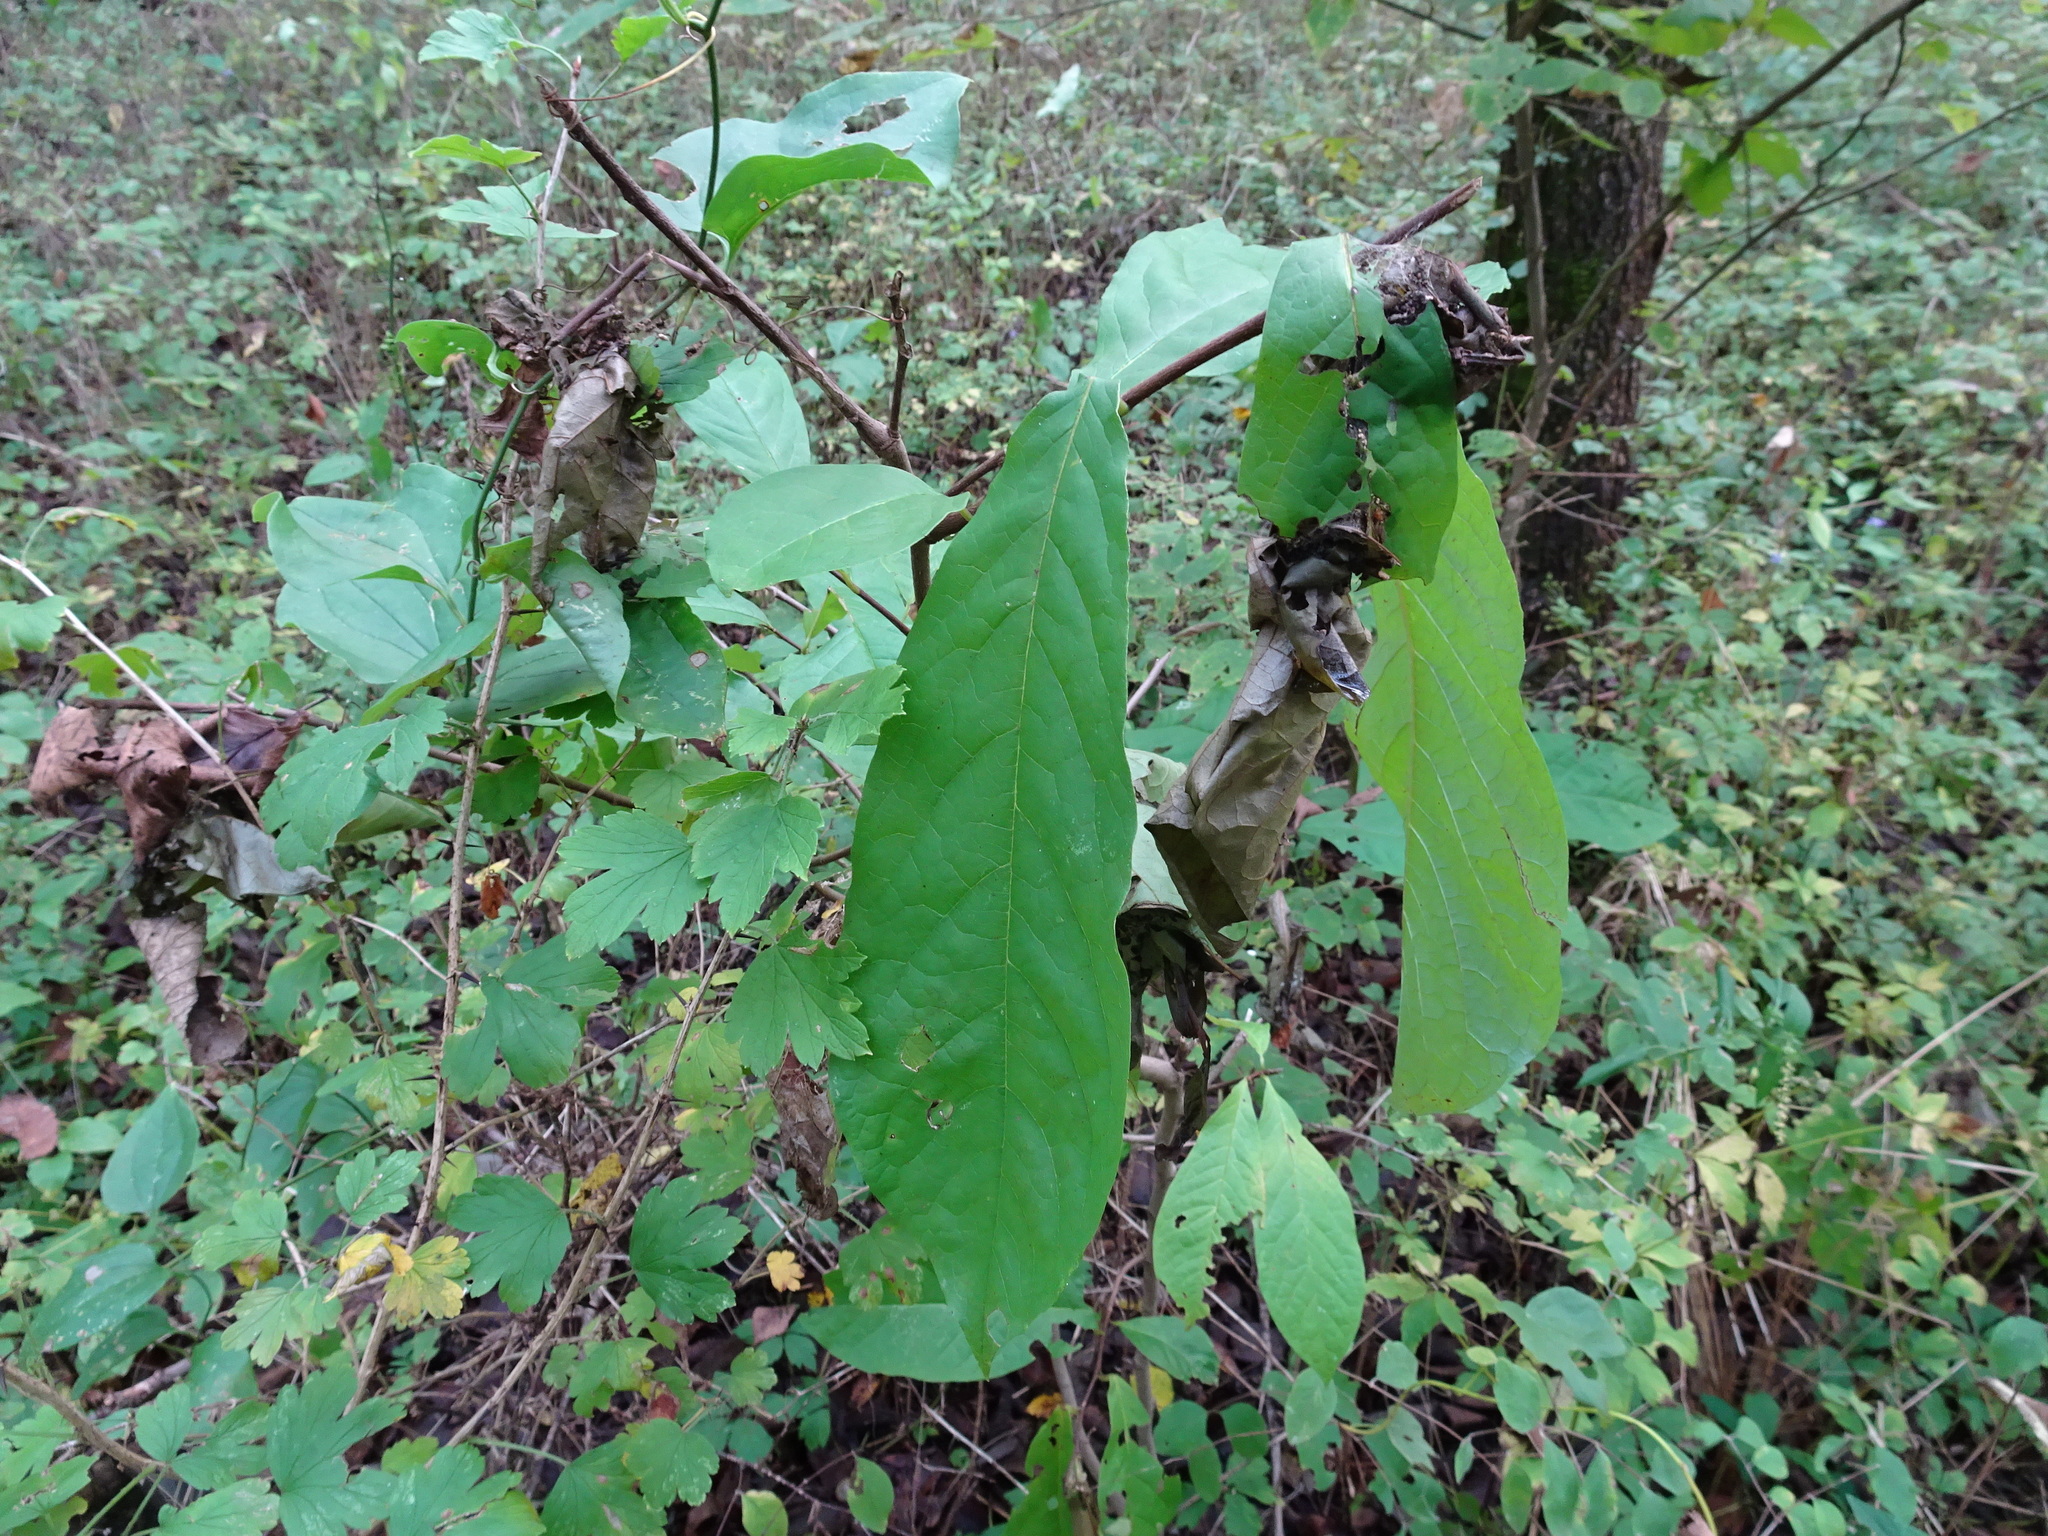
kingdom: Plantae
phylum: Tracheophyta
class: Magnoliopsida
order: Magnoliales
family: Annonaceae
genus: Asimina
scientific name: Asimina triloba
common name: Dog-banana
